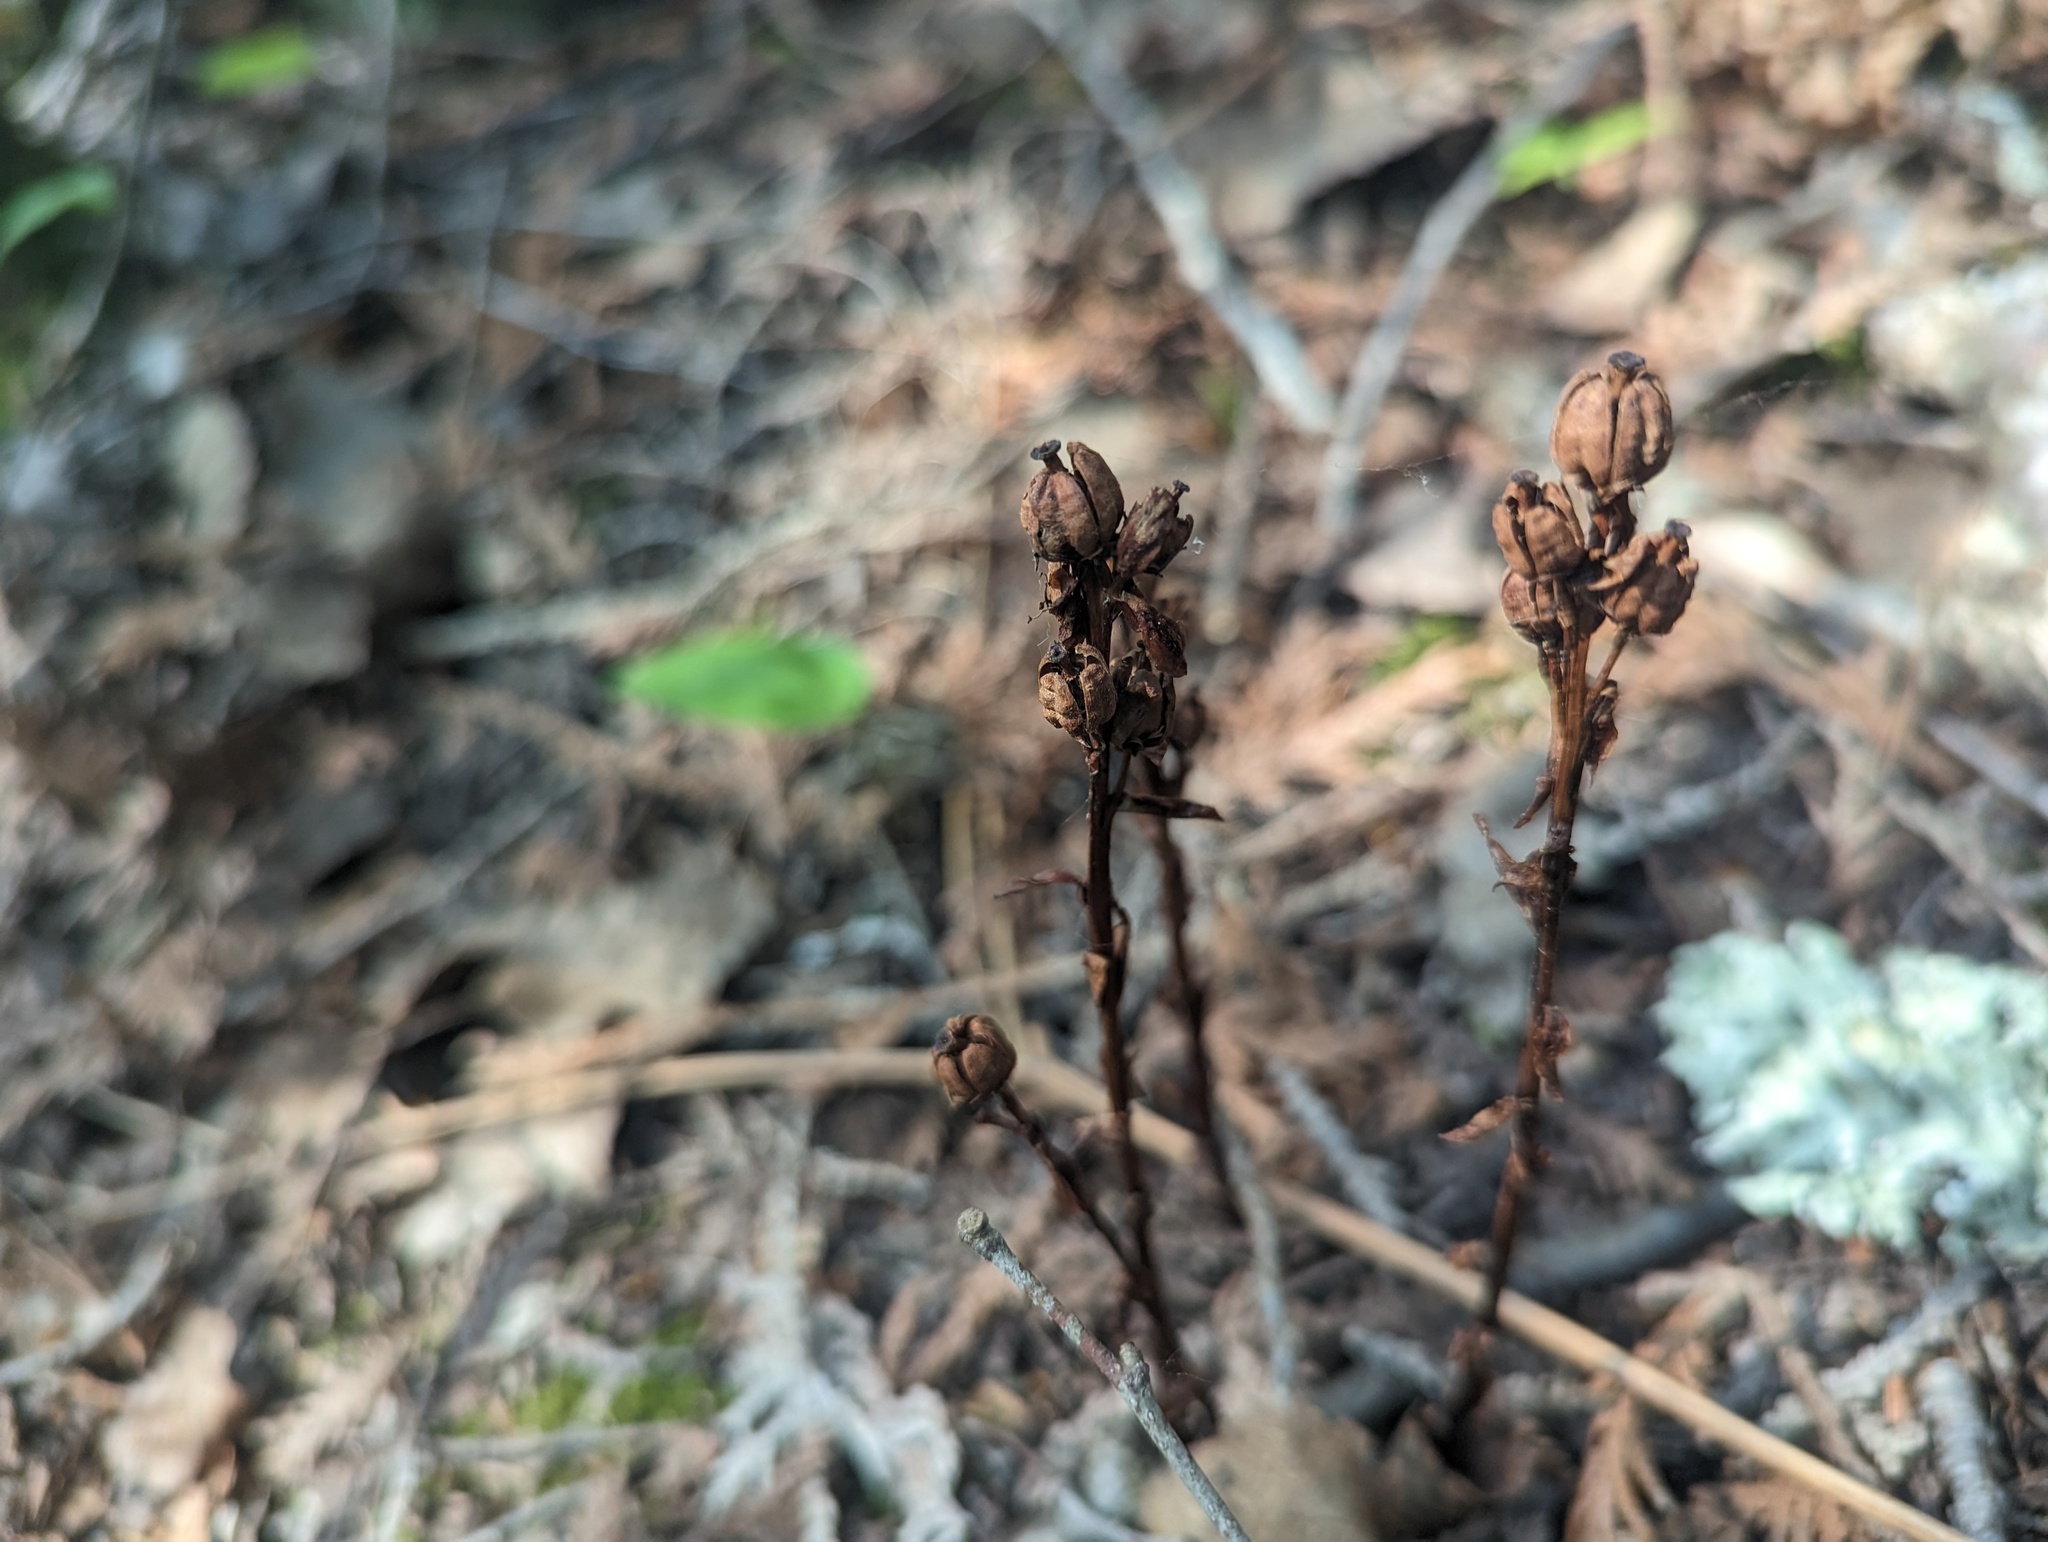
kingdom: Plantae
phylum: Tracheophyta
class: Magnoliopsida
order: Ericales
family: Ericaceae
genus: Hypopitys
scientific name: Hypopitys monotropa
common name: Yellow bird's-nest
